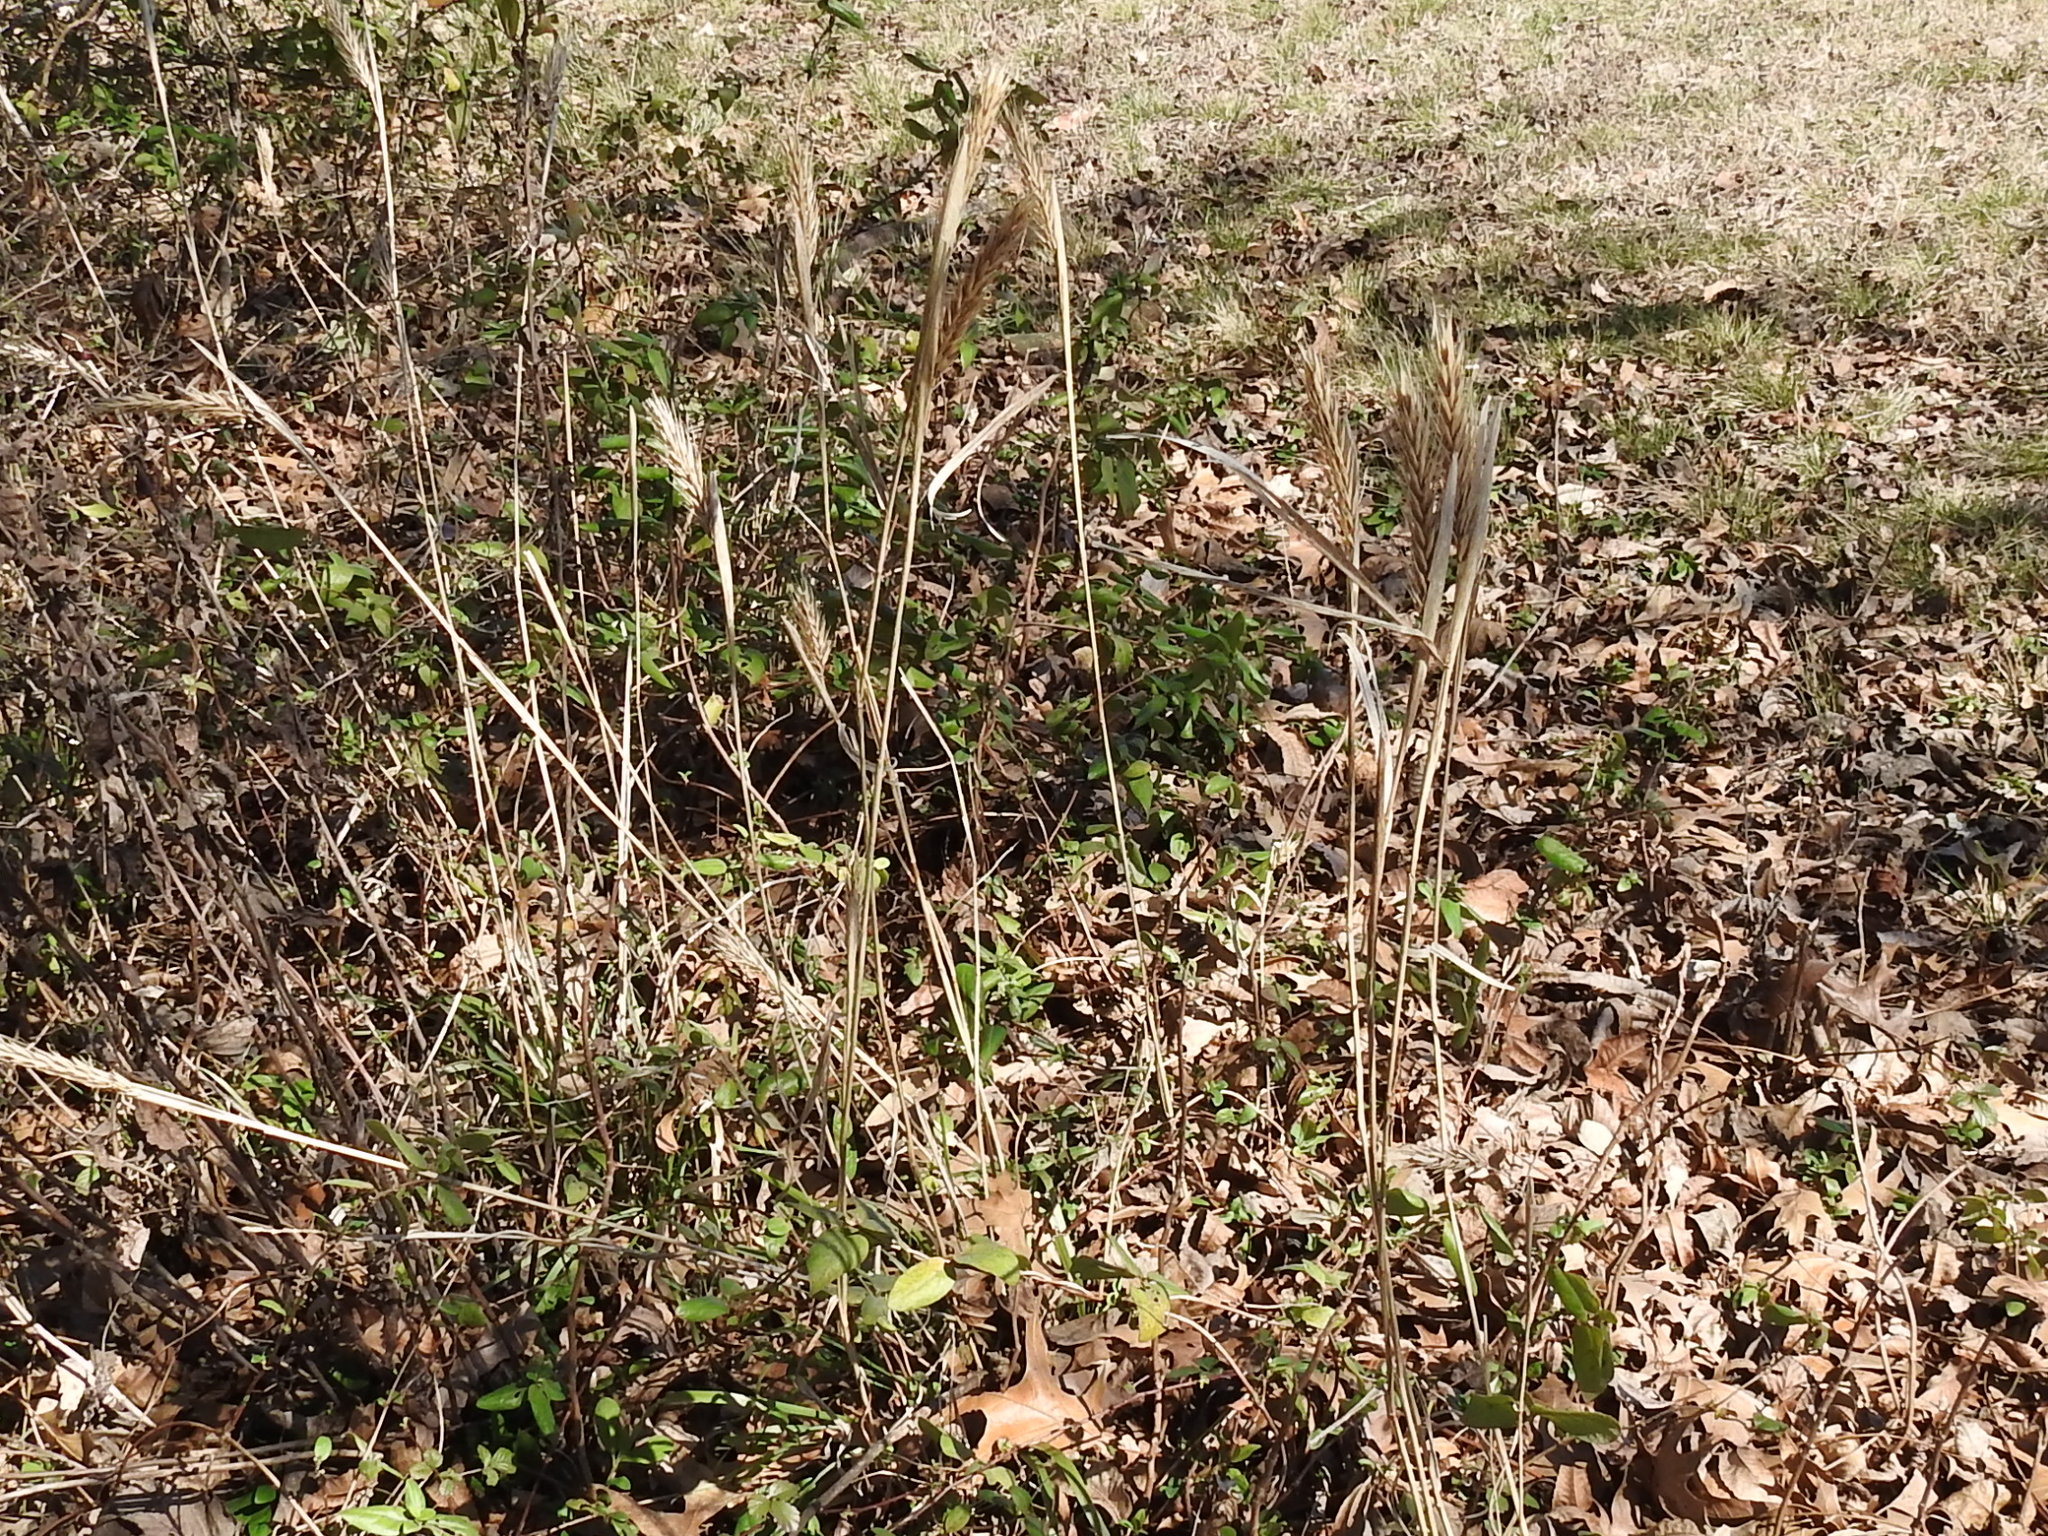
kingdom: Plantae
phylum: Tracheophyta
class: Liliopsida
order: Poales
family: Poaceae
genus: Elymus
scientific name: Elymus virginicus
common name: Common eastern wildrye
